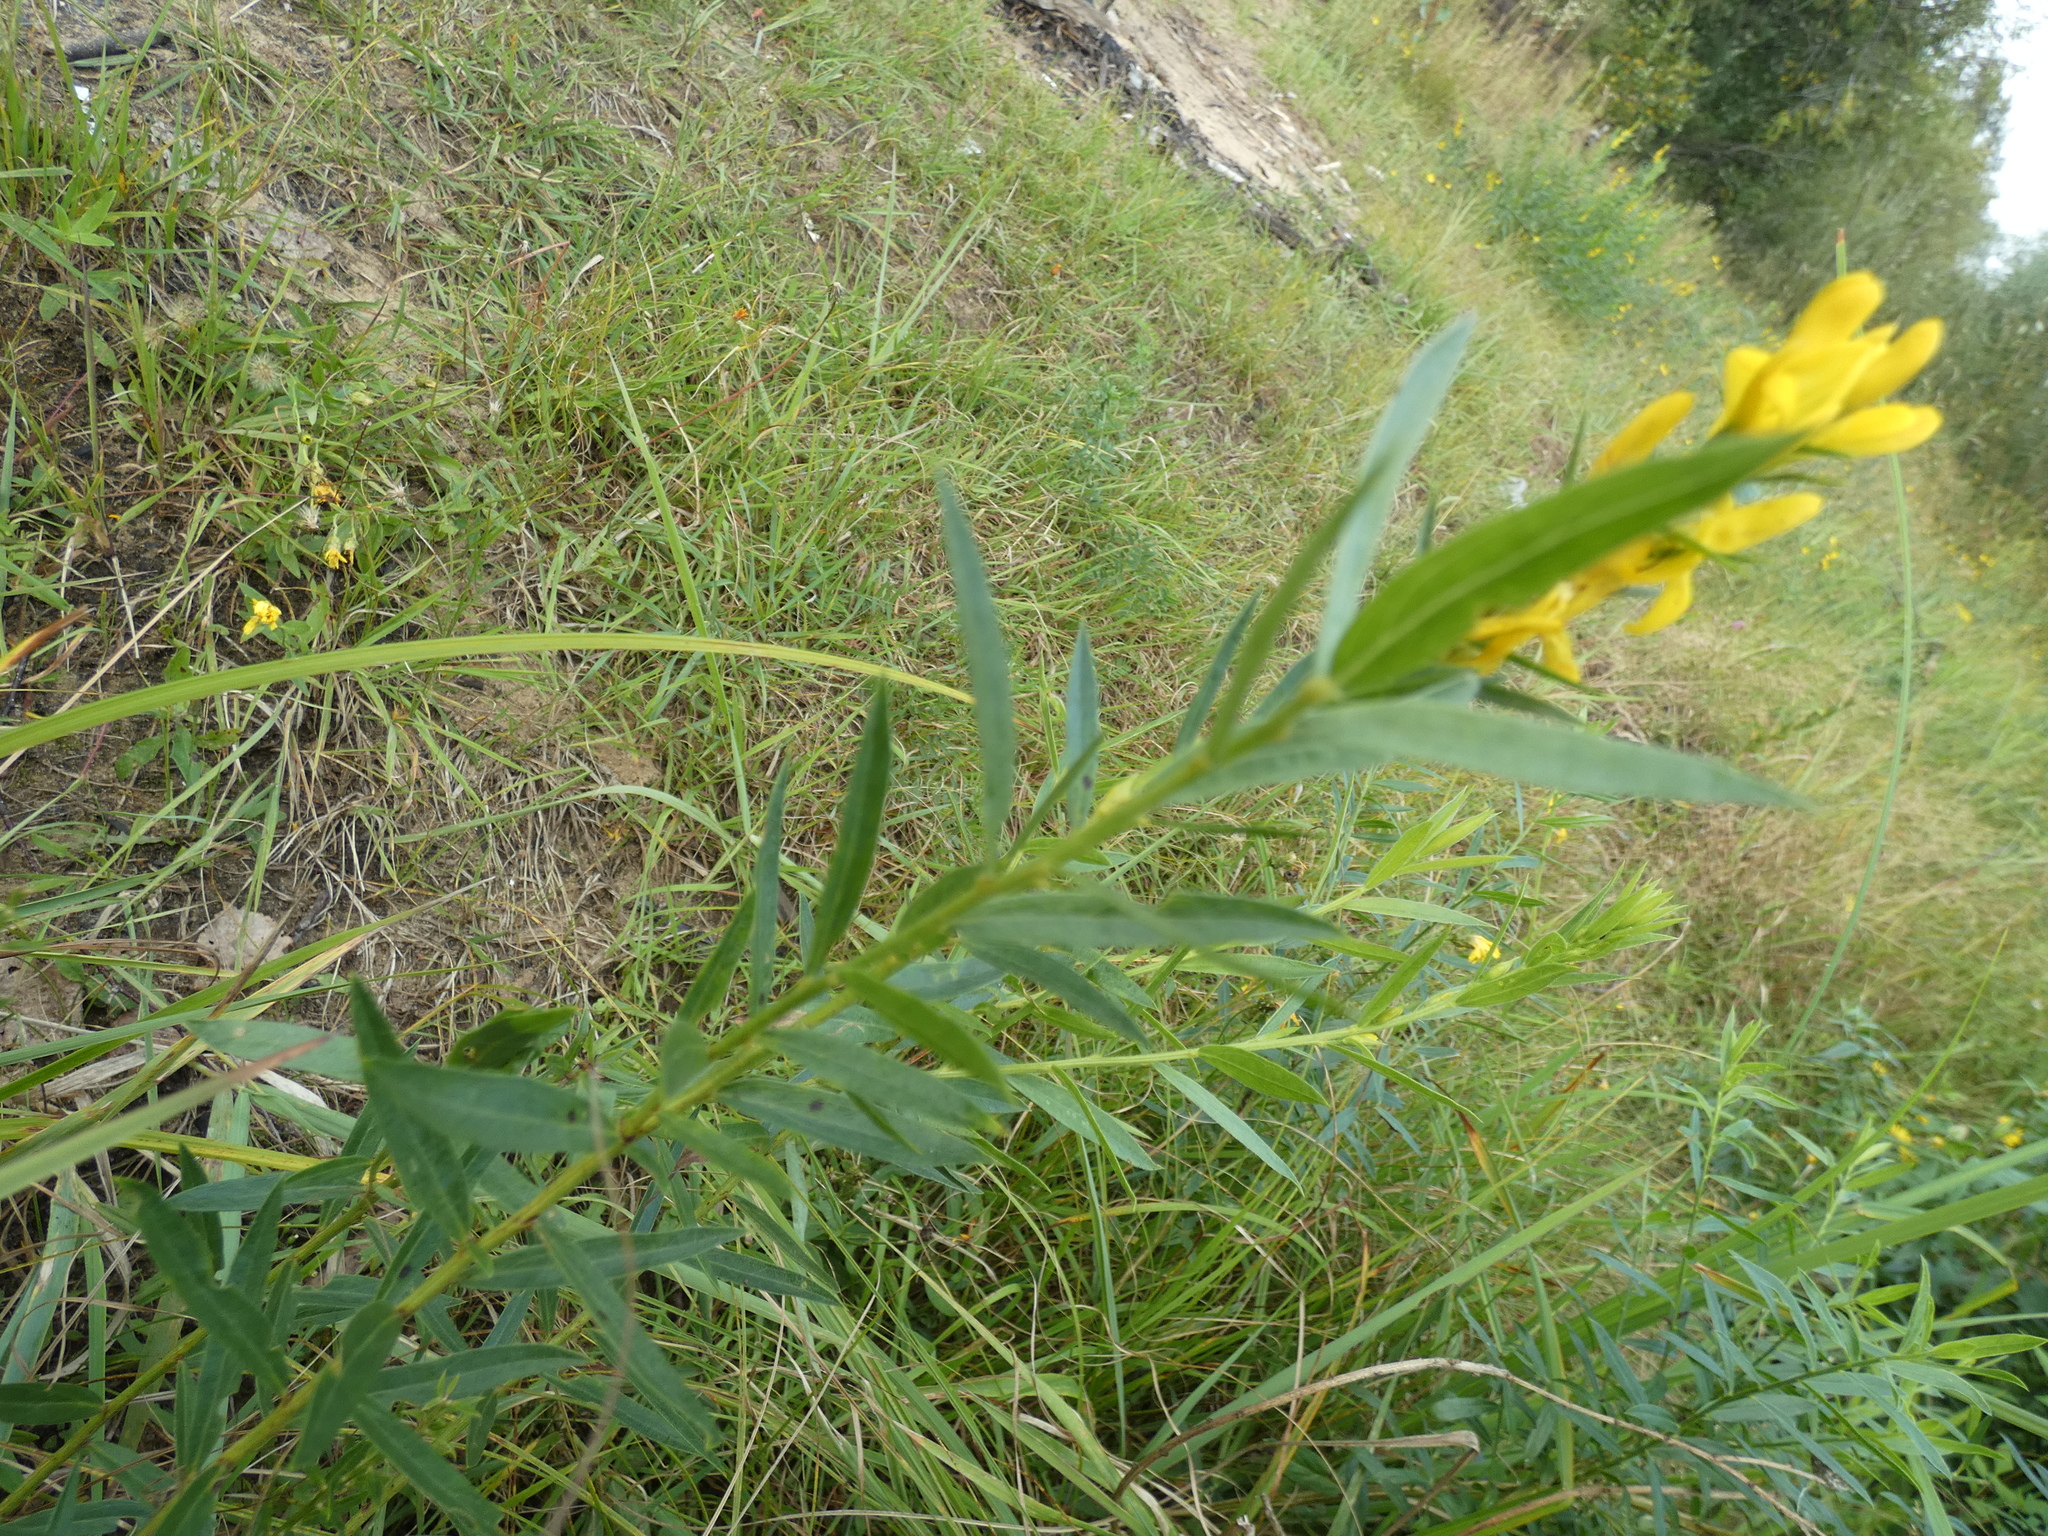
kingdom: Plantae
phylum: Tracheophyta
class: Magnoliopsida
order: Fabales
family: Fabaceae
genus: Genista
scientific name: Genista tinctoria
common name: Dyer's greenweed
